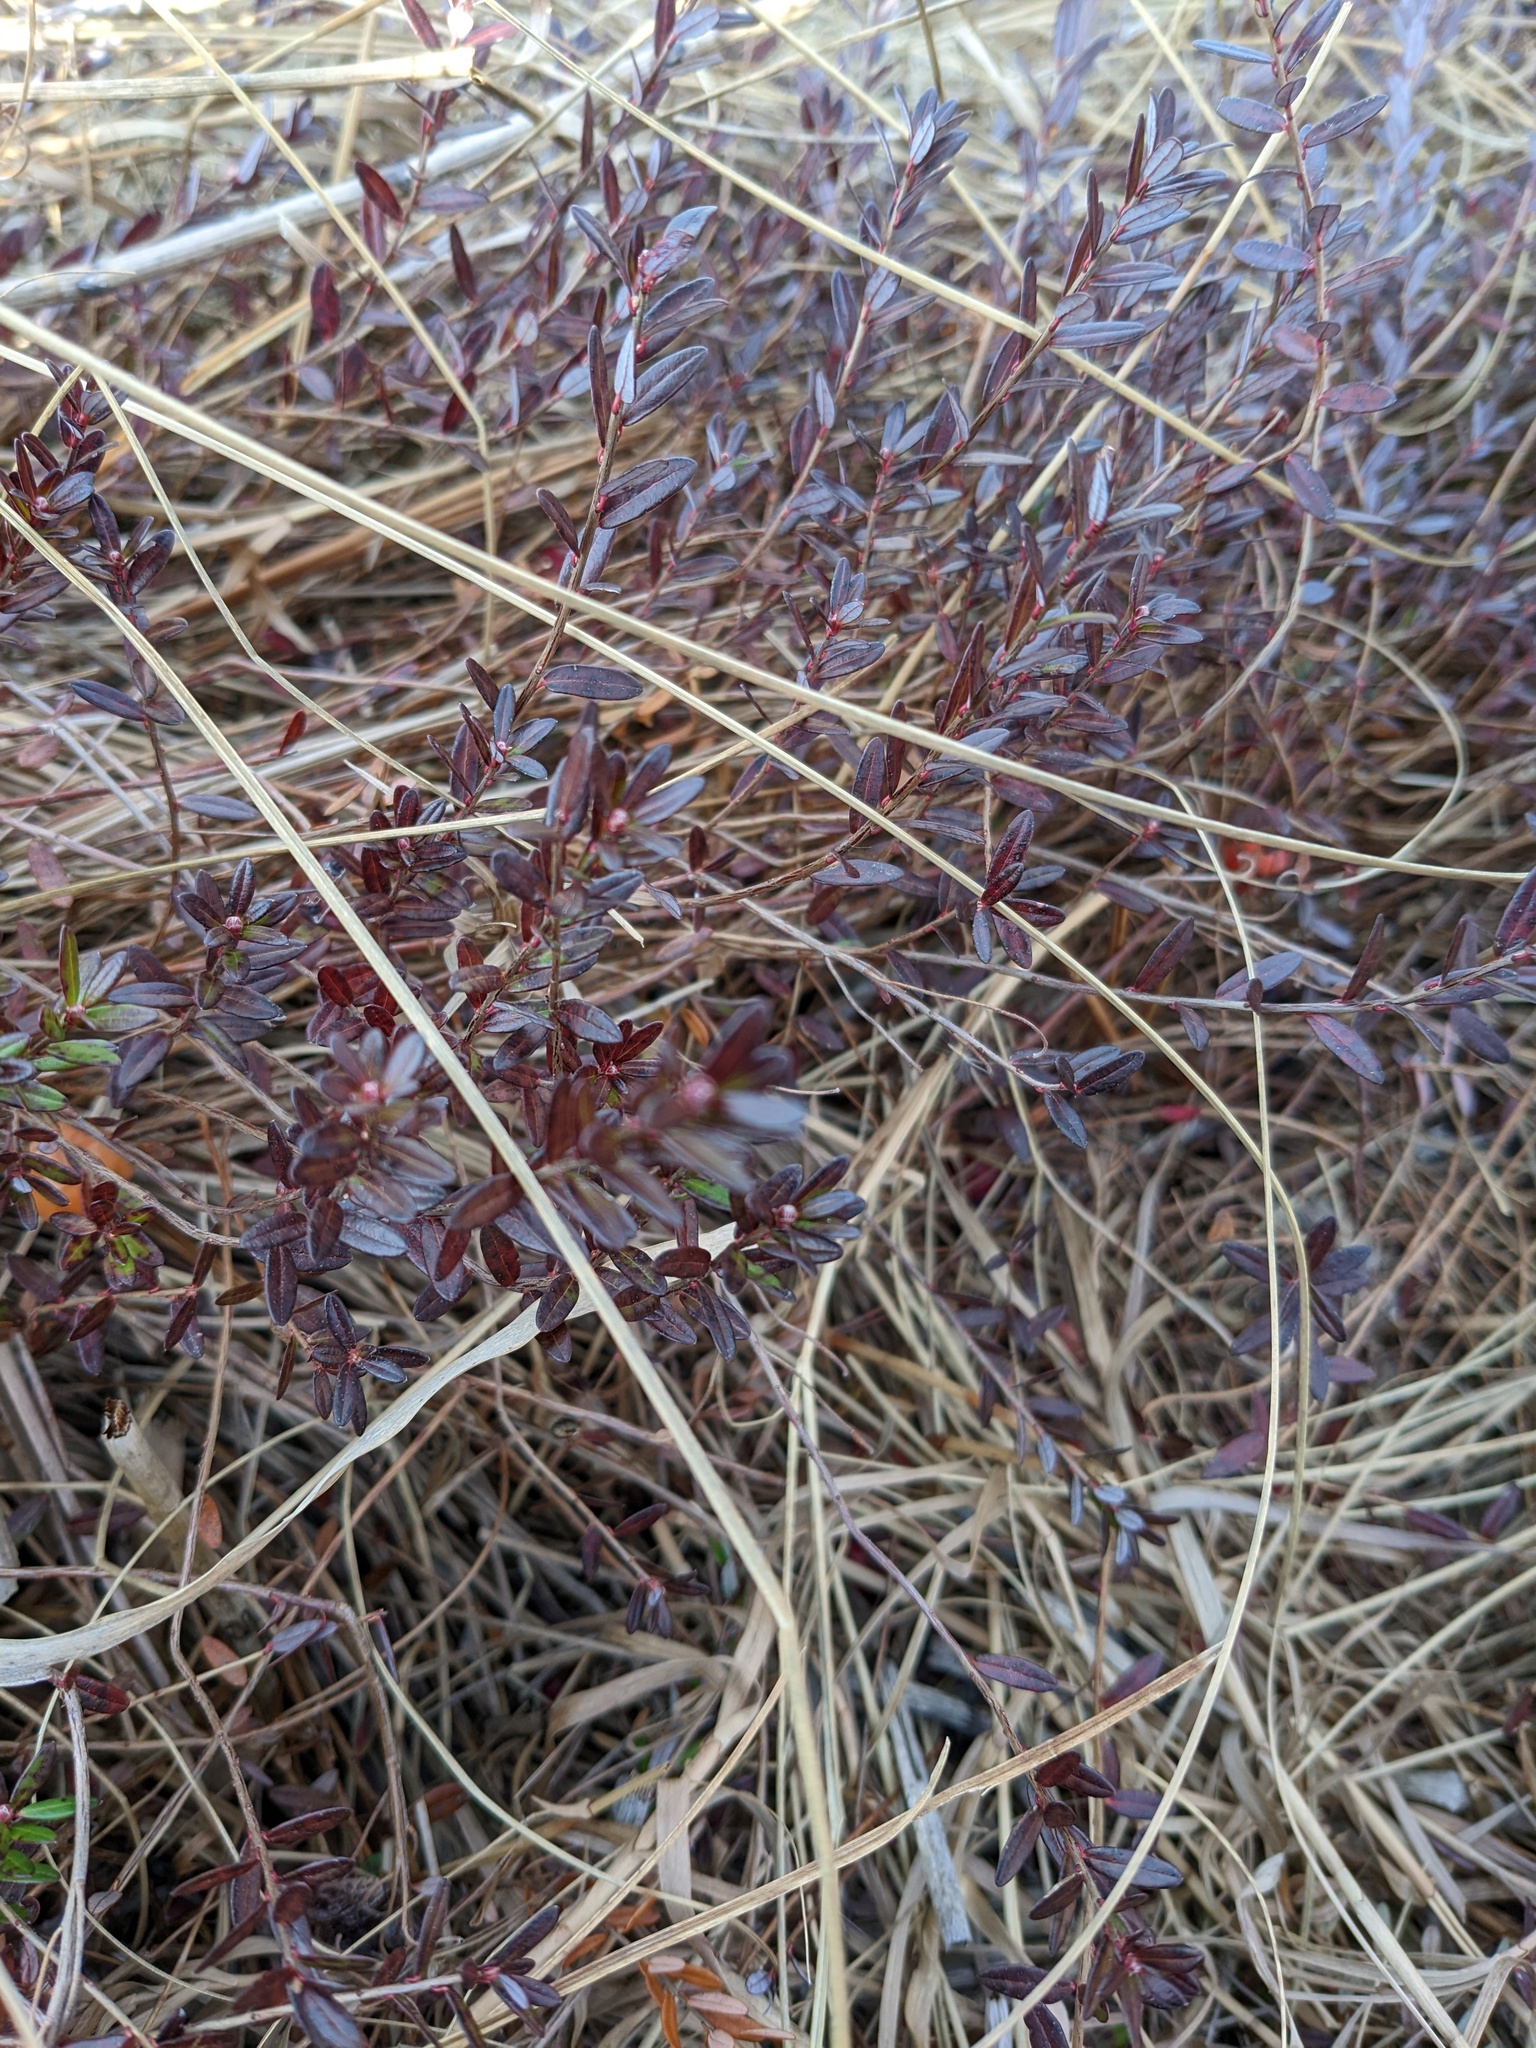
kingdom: Plantae
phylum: Tracheophyta
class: Magnoliopsida
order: Ericales
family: Ericaceae
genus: Vaccinium
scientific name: Vaccinium macrocarpon
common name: American cranberry
